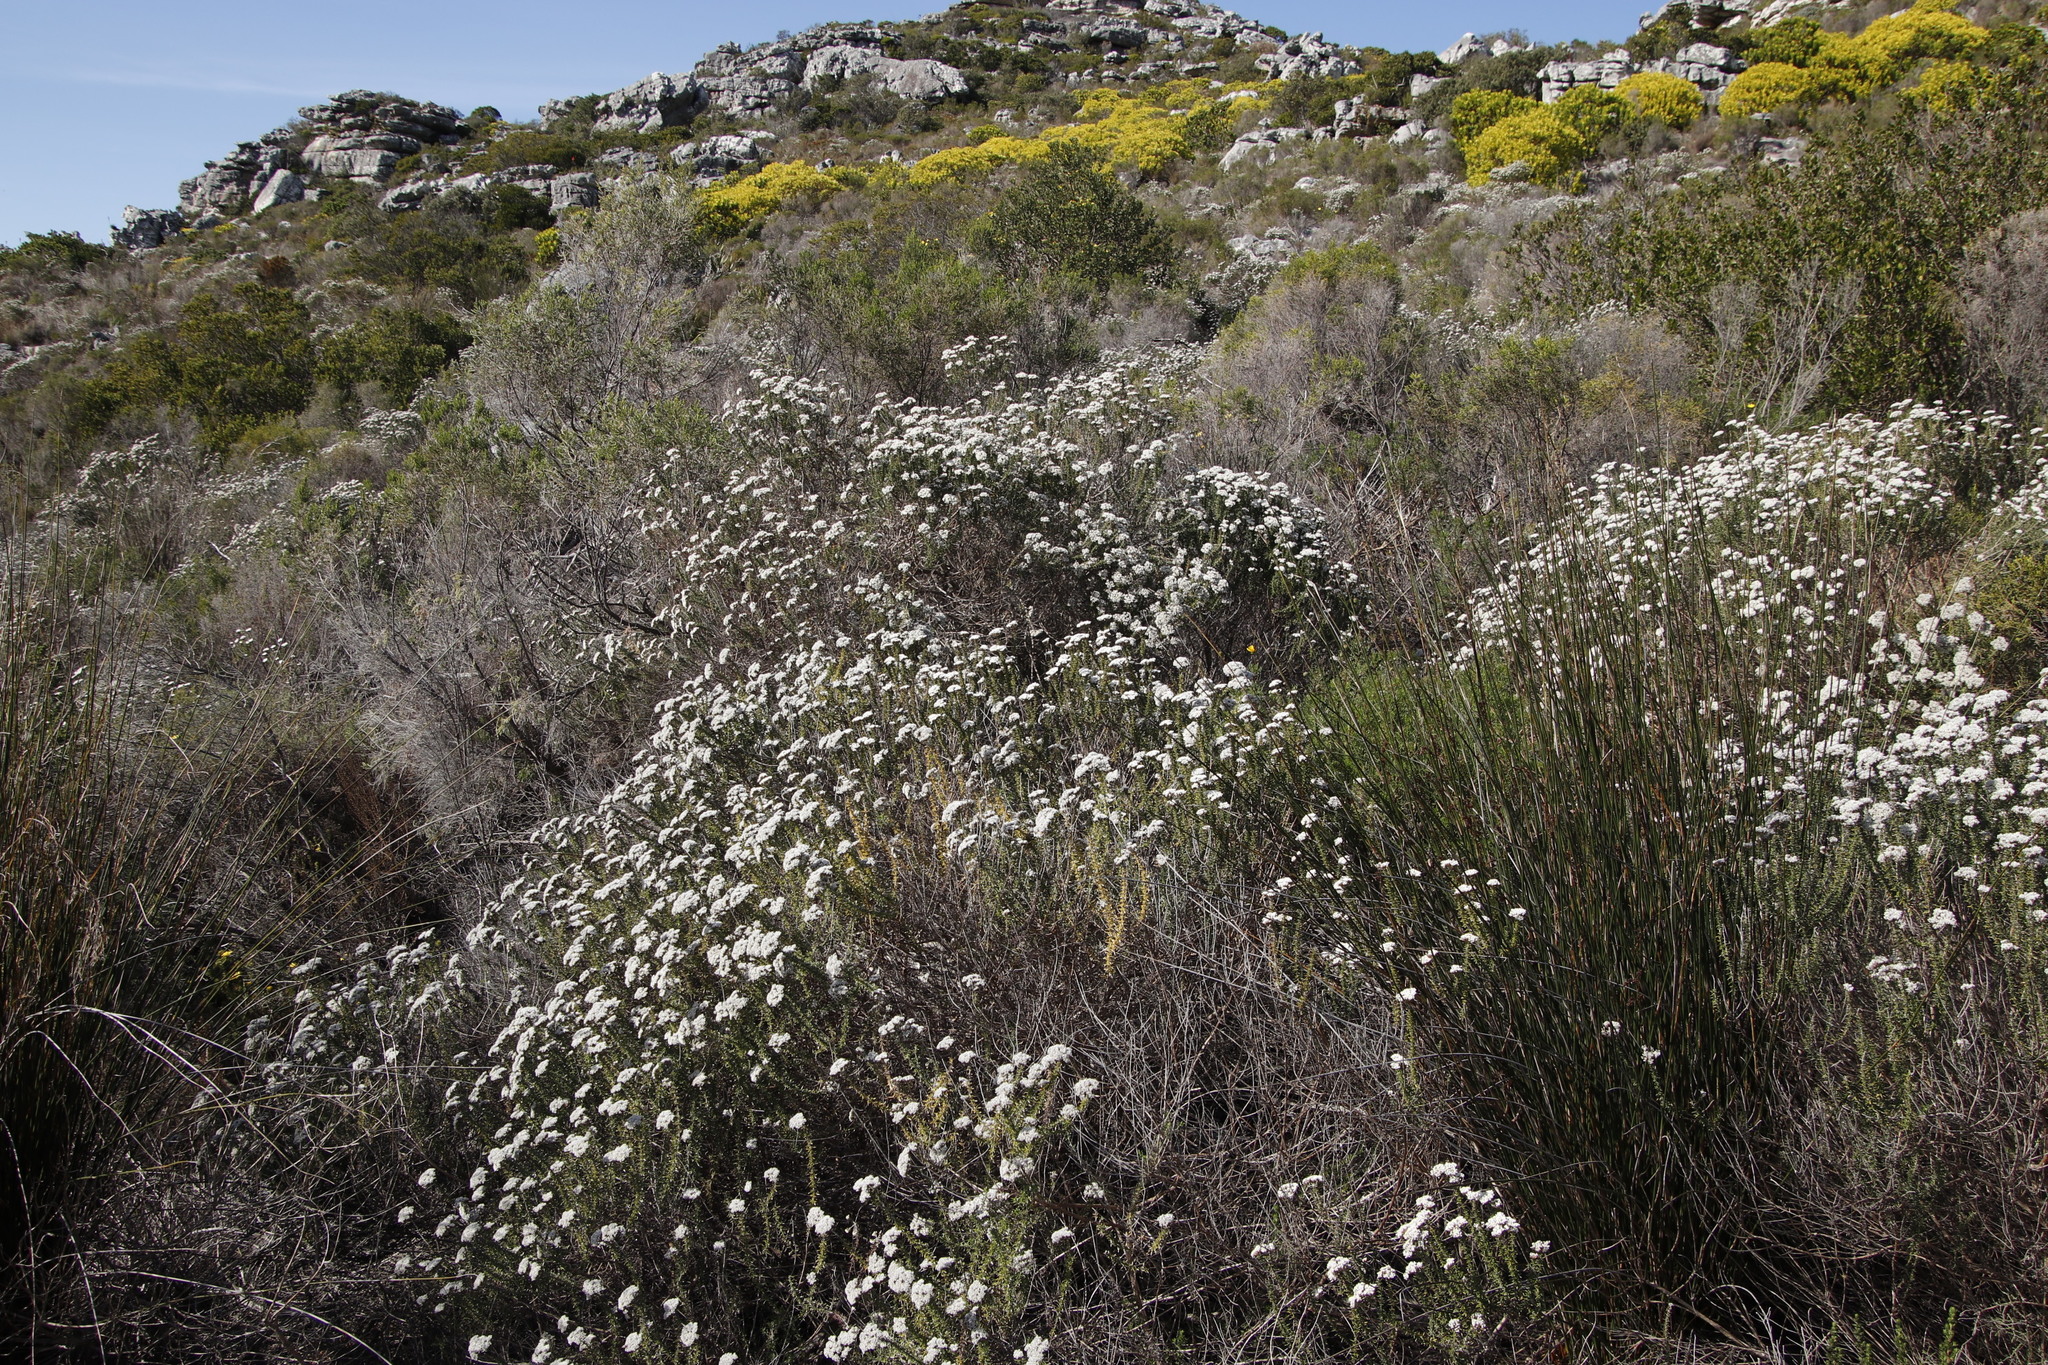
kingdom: Plantae
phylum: Tracheophyta
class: Magnoliopsida
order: Asterales
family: Asteraceae
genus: Metalasia
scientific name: Metalasia densa
